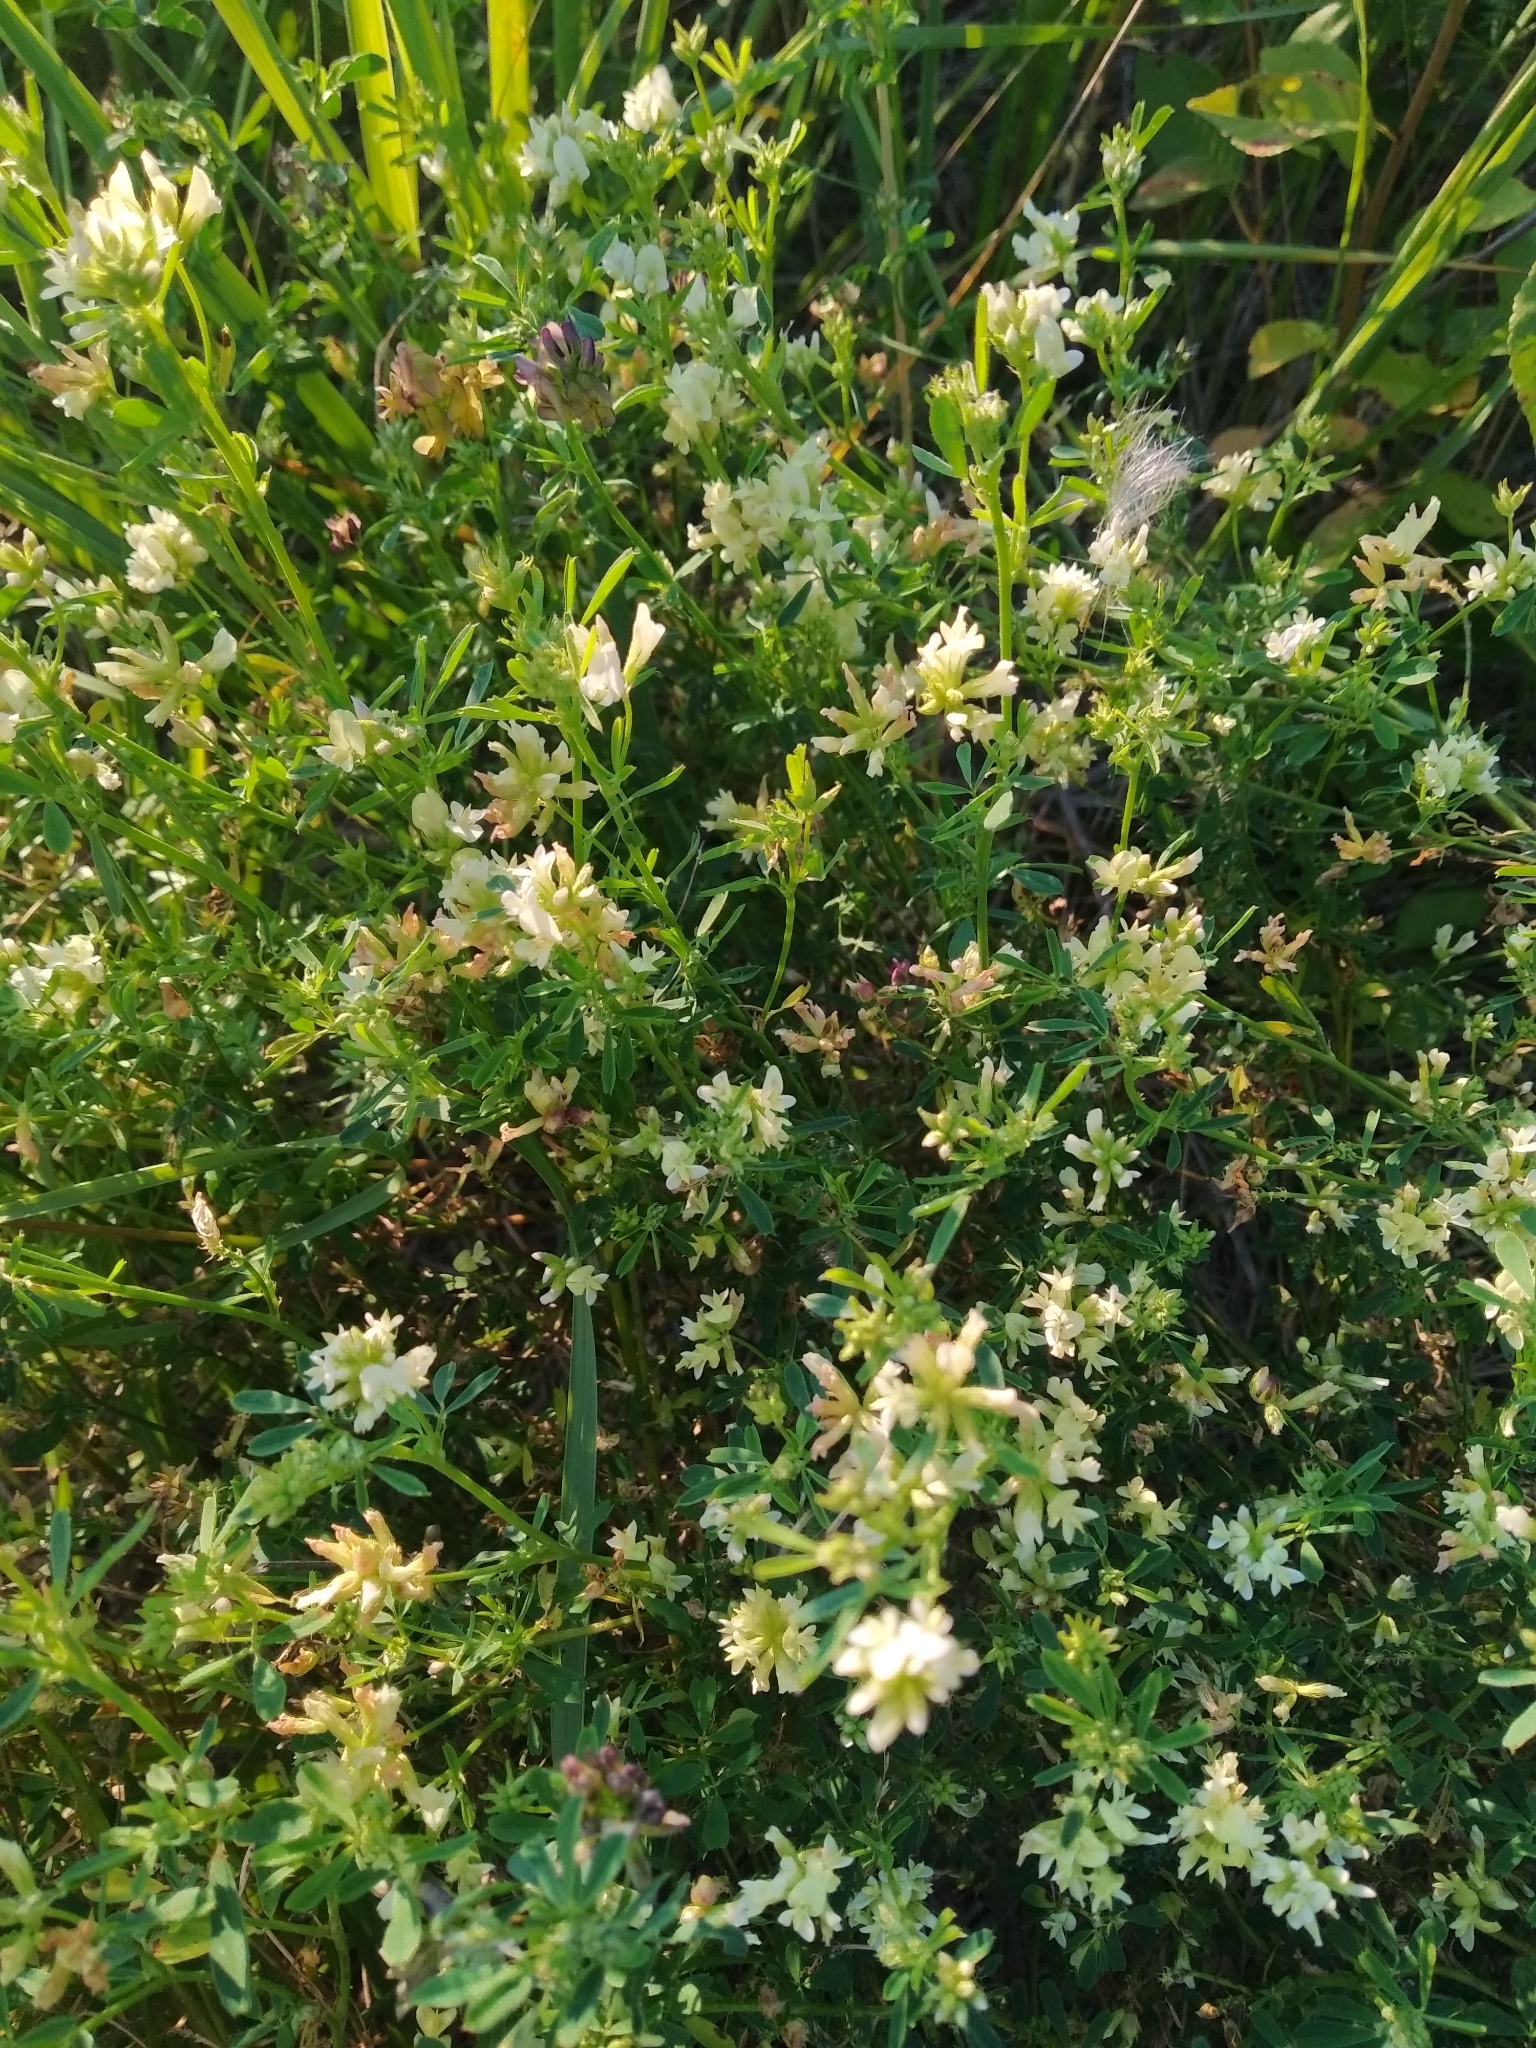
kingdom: Plantae
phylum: Tracheophyta
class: Magnoliopsida
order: Fabales
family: Fabaceae
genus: Medicago
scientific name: Medicago varia
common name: Sand lucerne
